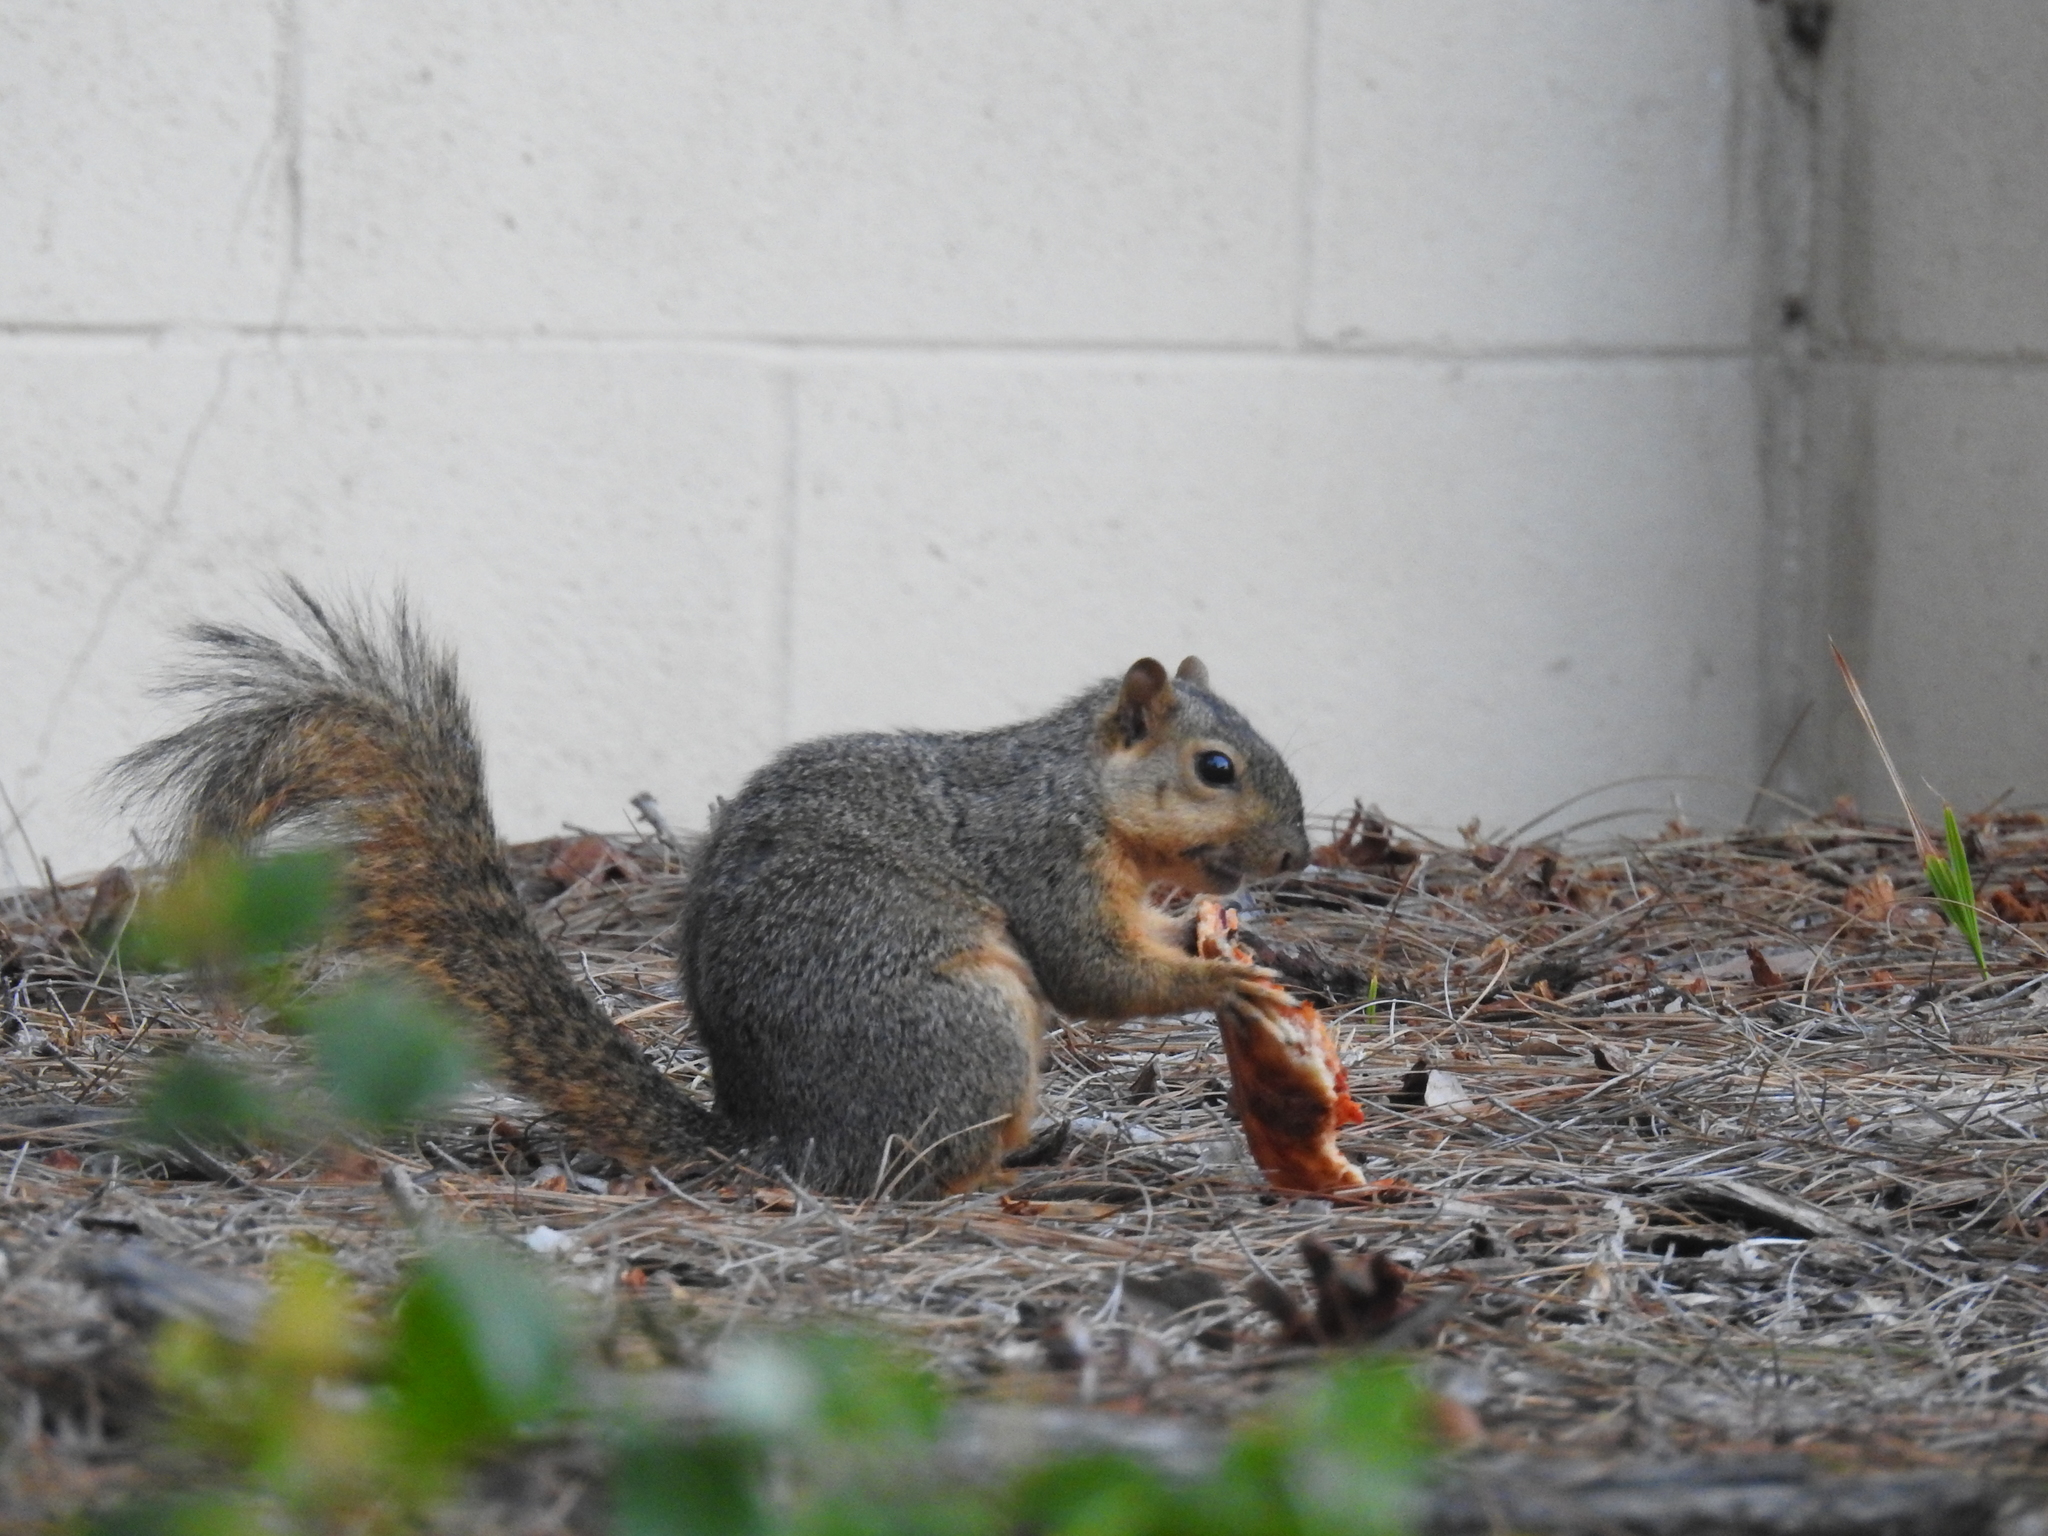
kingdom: Animalia
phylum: Chordata
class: Mammalia
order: Rodentia
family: Sciuridae
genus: Sciurus
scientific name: Sciurus niger
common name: Fox squirrel
